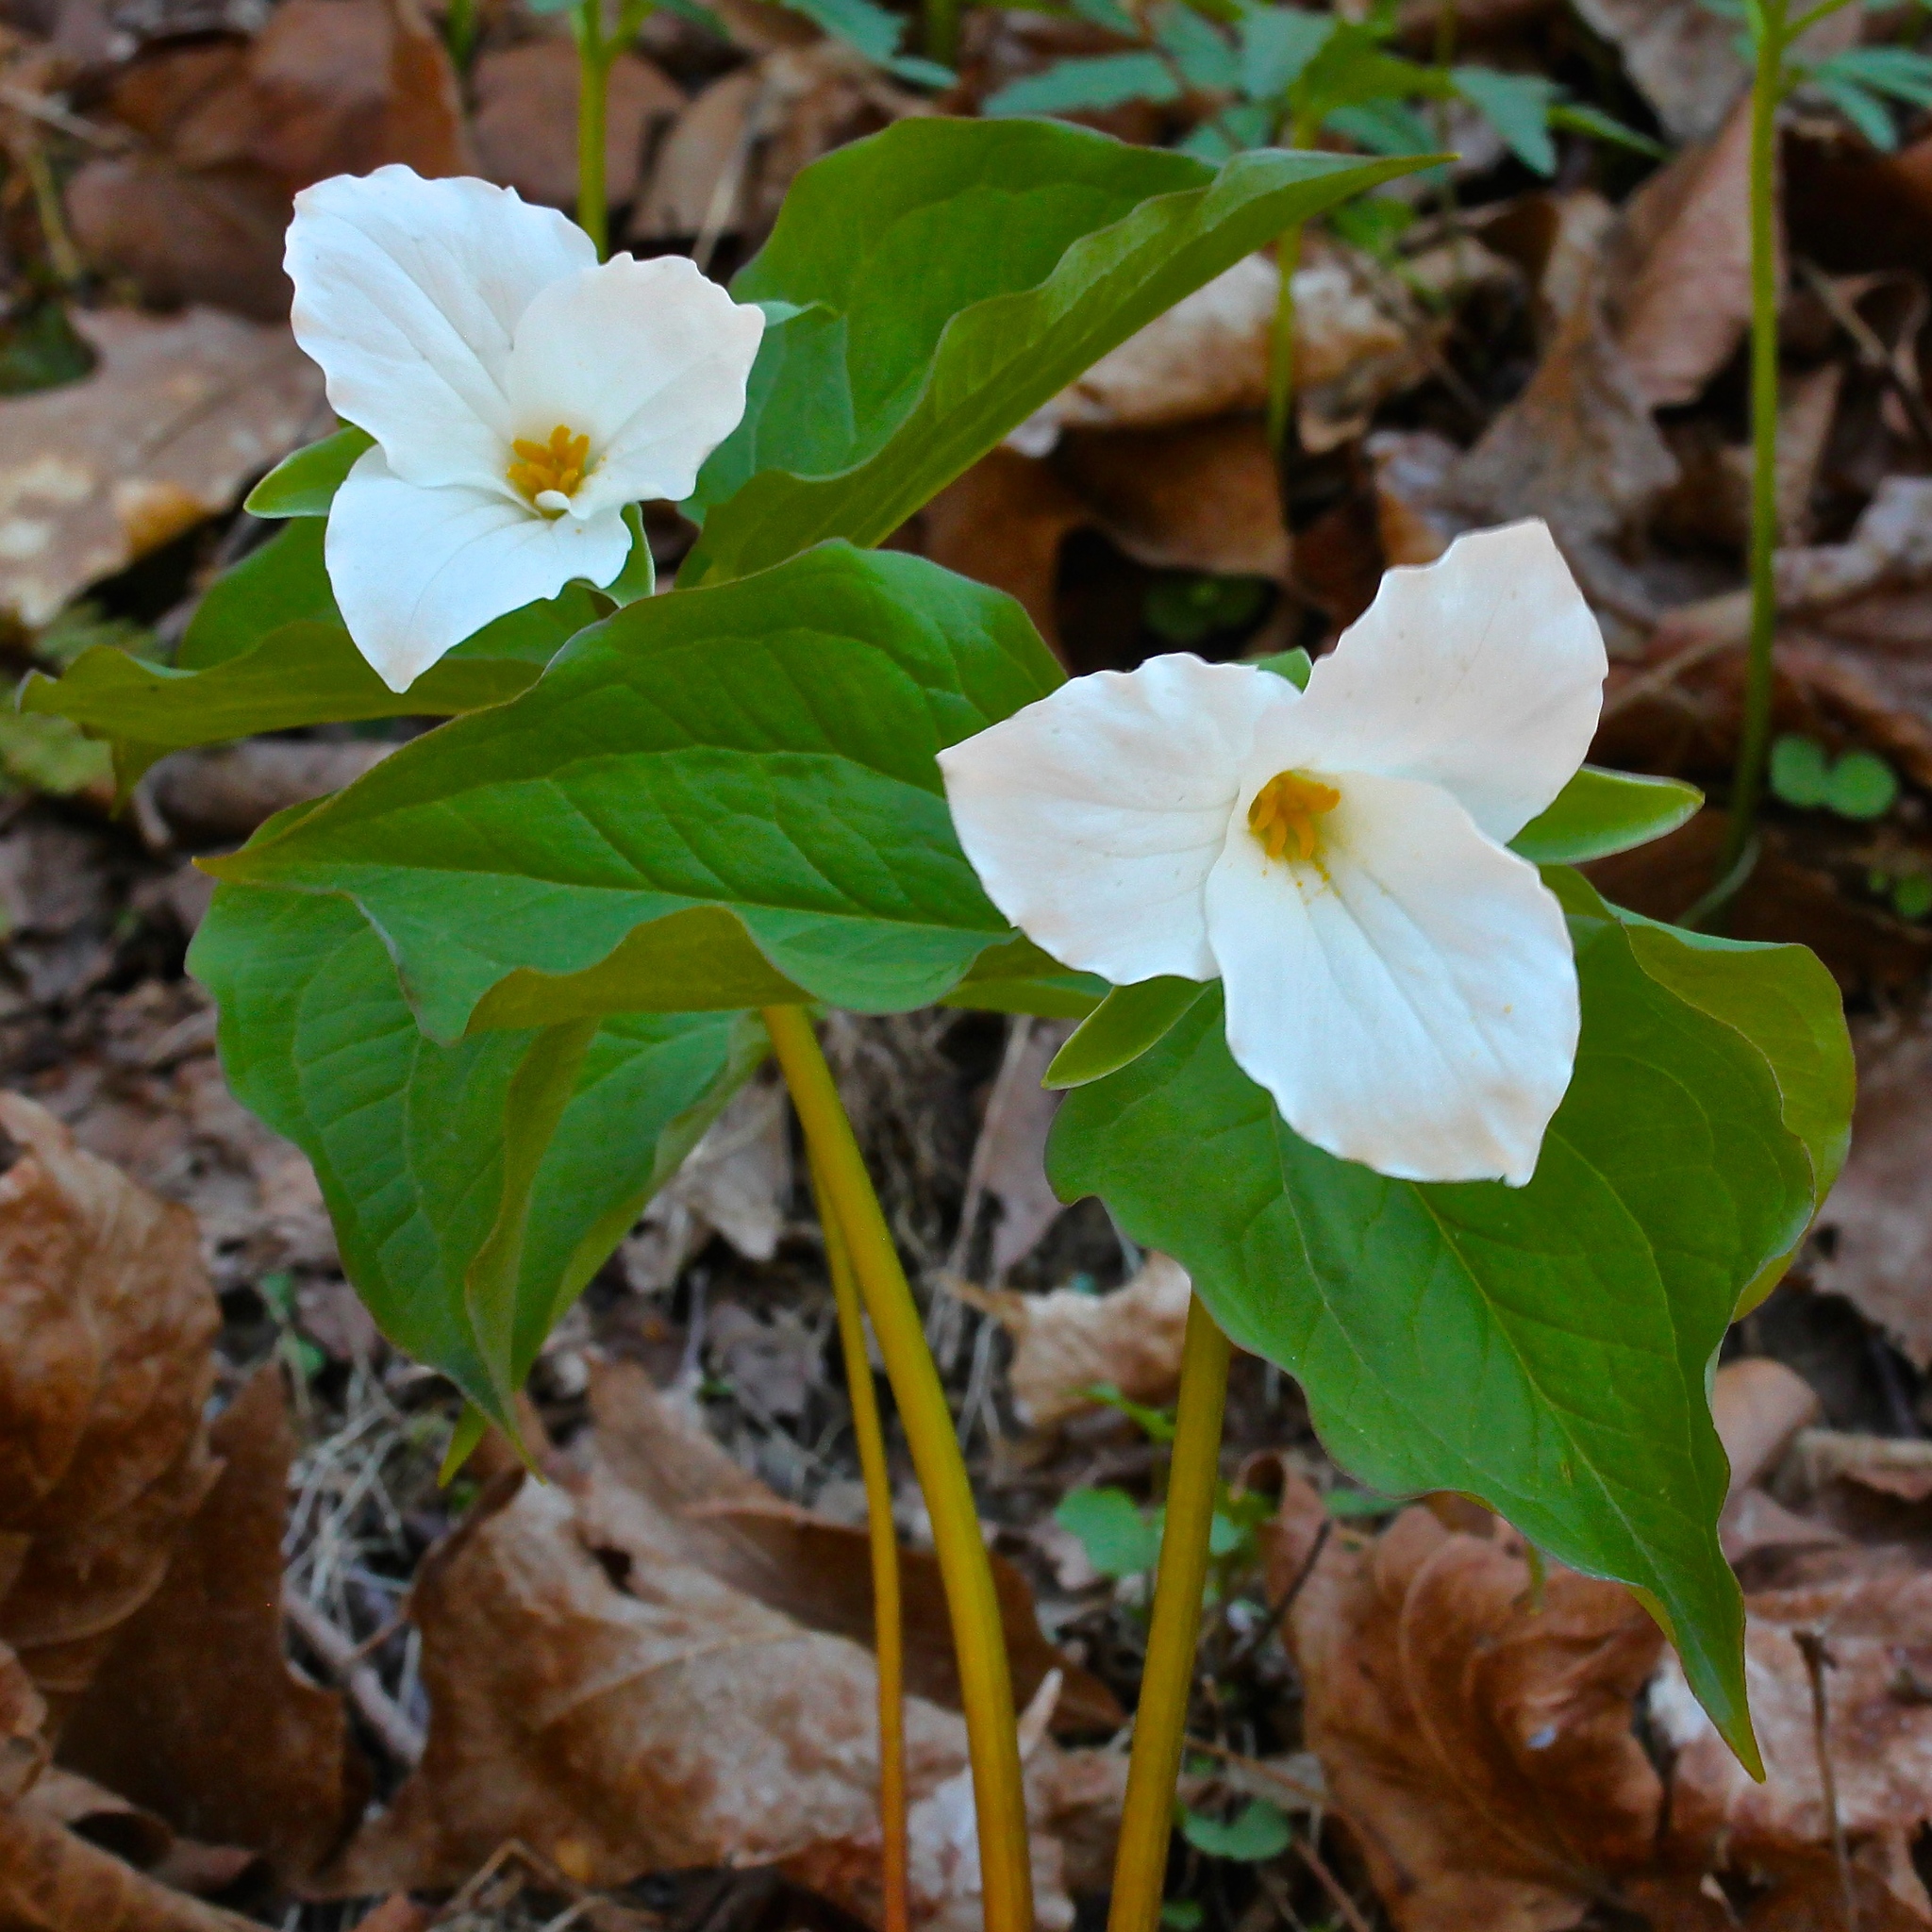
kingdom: Plantae
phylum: Tracheophyta
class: Liliopsida
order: Liliales
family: Melanthiaceae
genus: Trillium
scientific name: Trillium grandiflorum
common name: Great white trillium
